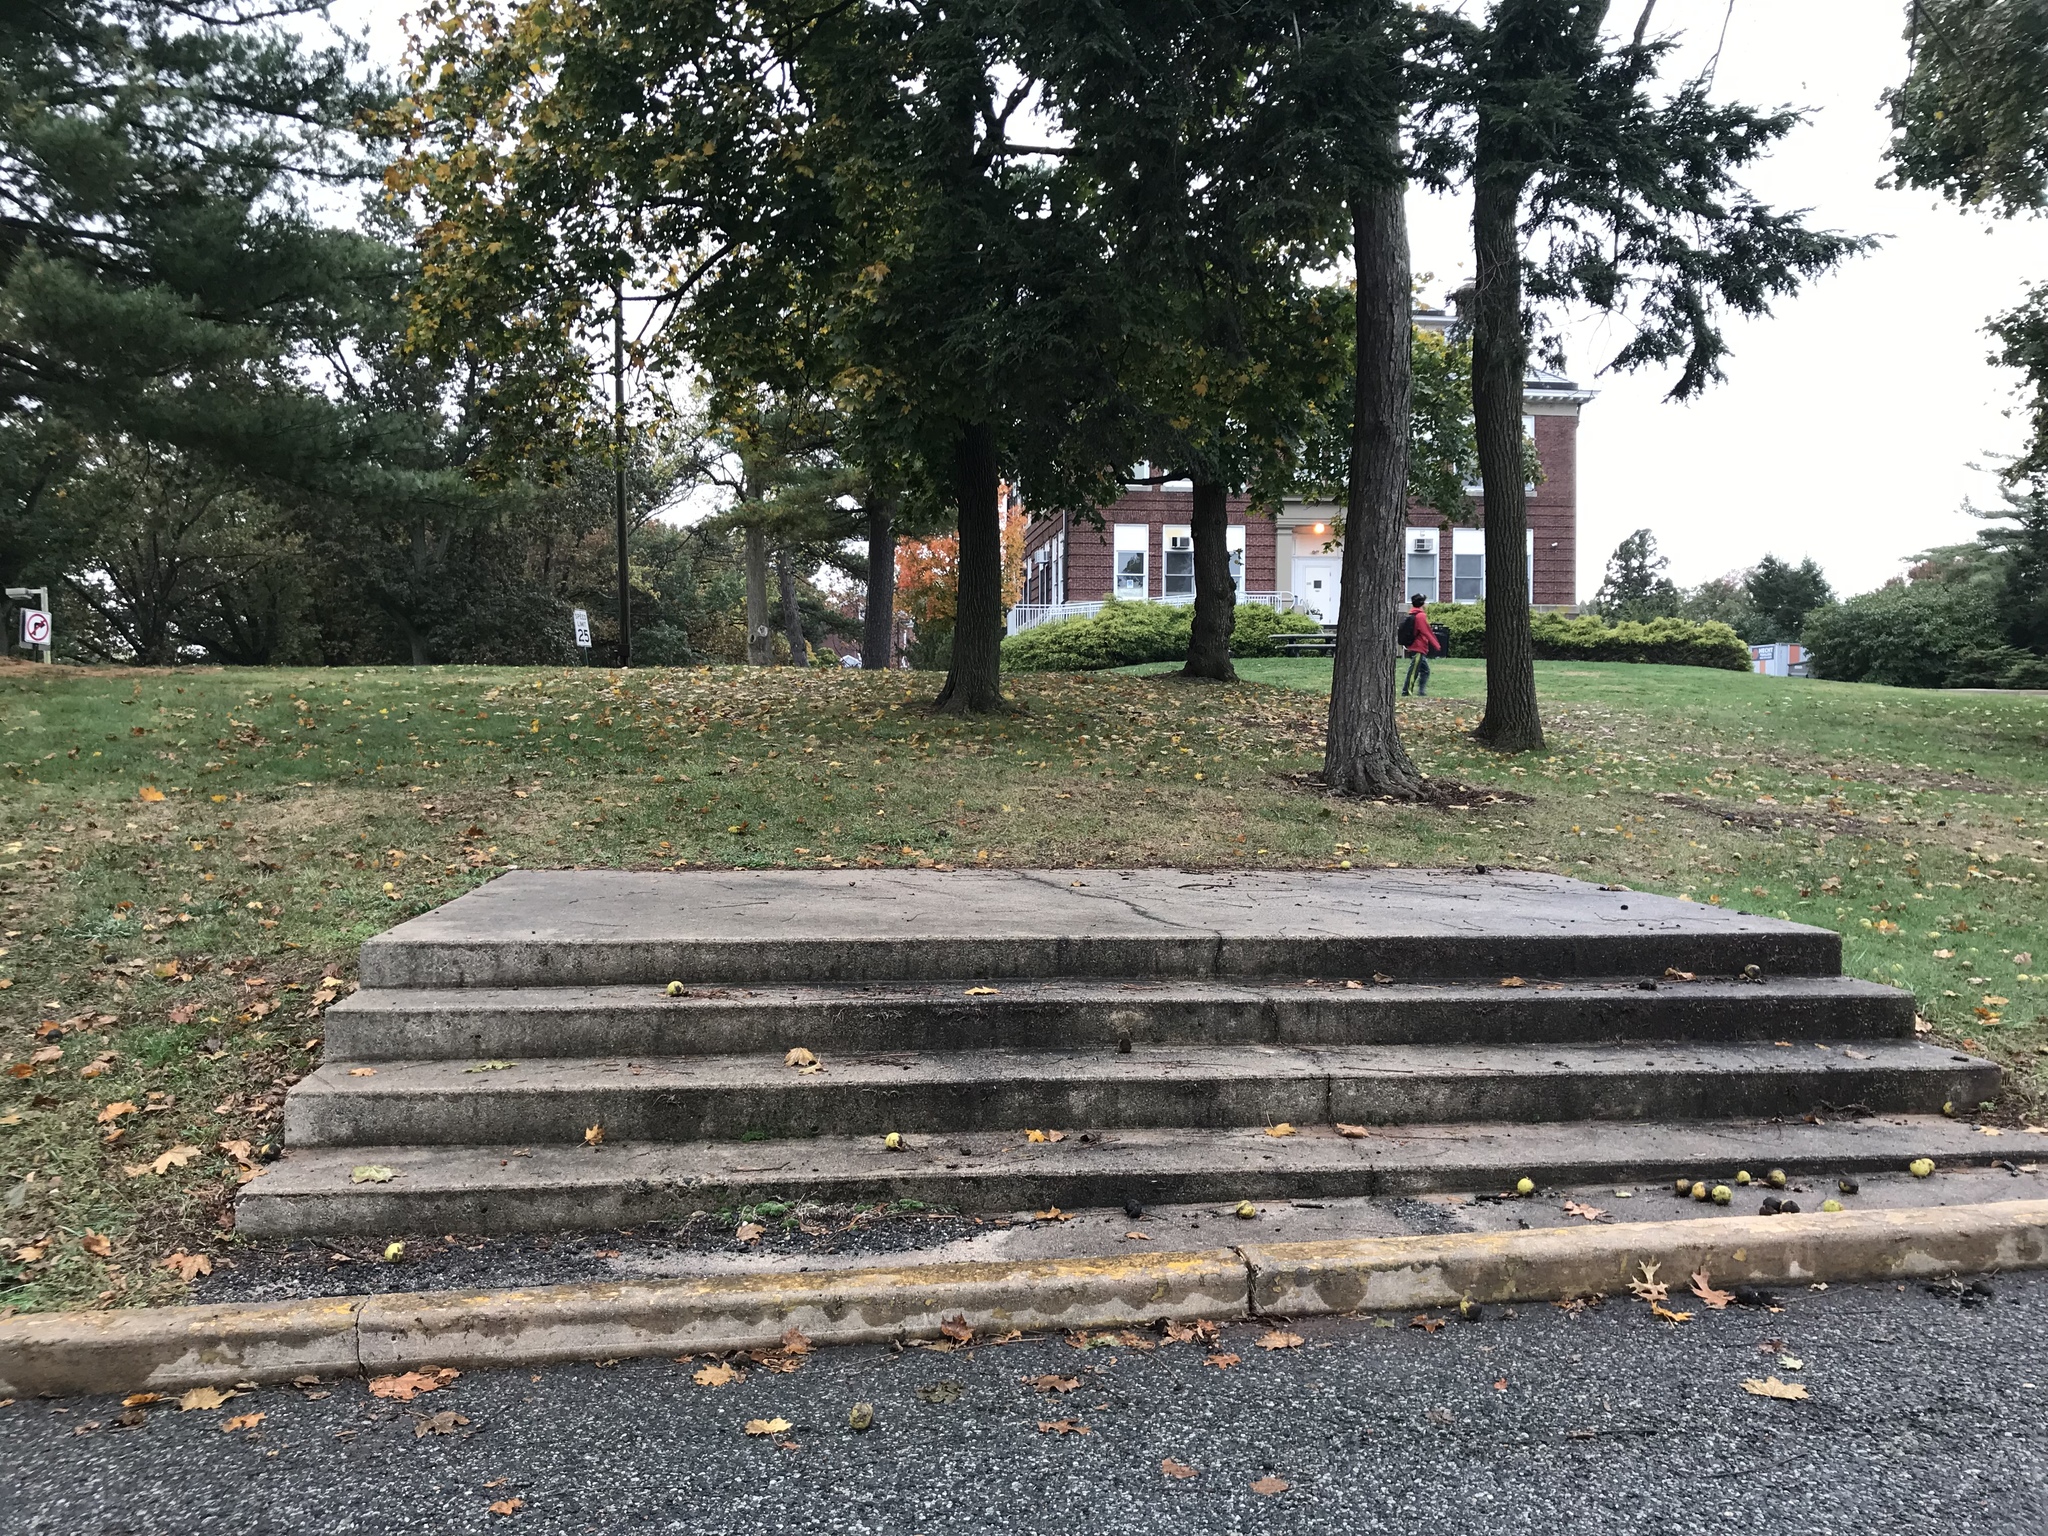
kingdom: Plantae
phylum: Bryophyta
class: Bryopsida
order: Bryales
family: Bryaceae
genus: Bryum
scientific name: Bryum argenteum
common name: Silver-moss
